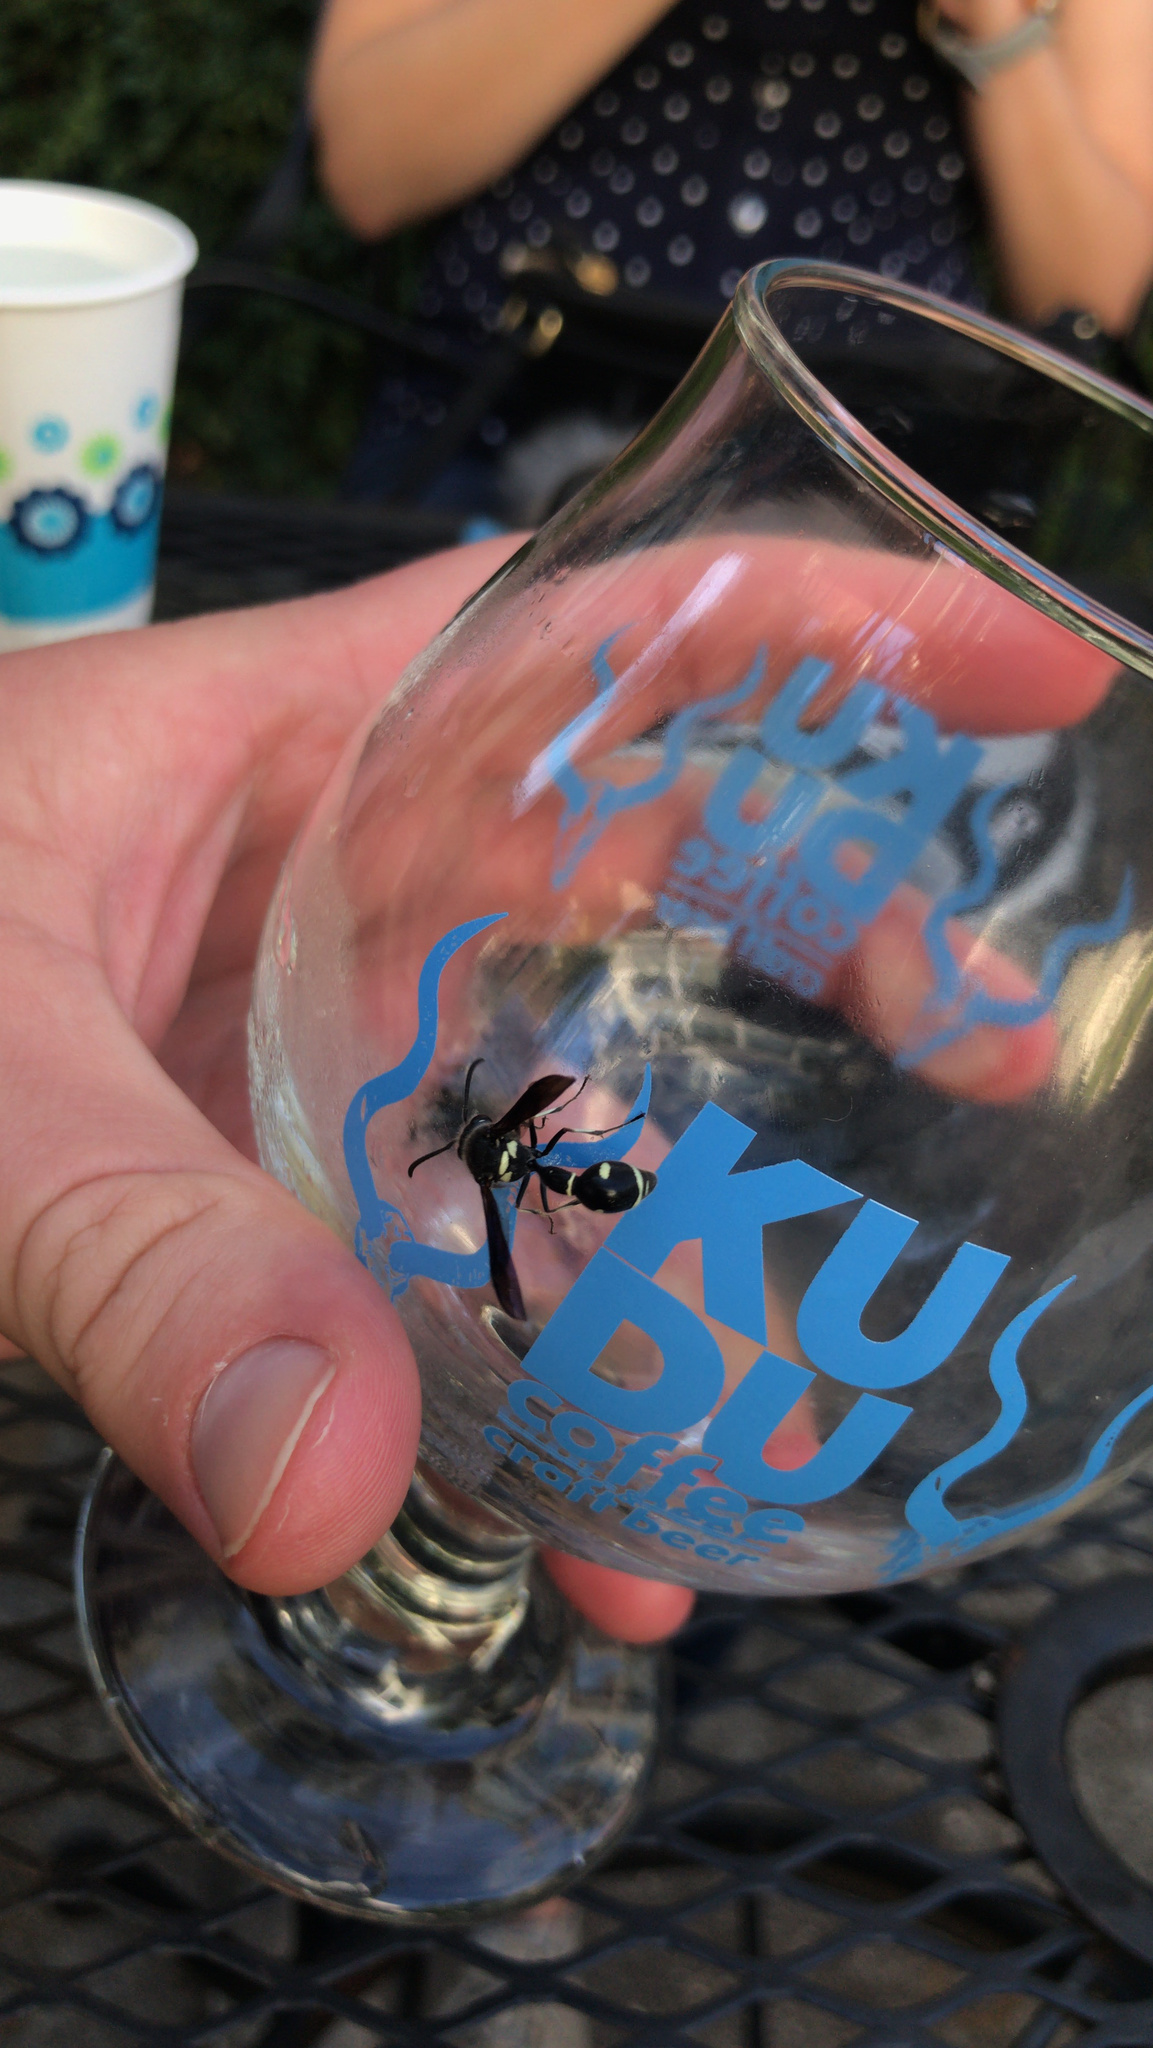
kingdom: Animalia
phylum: Arthropoda
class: Insecta
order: Hymenoptera
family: Vespidae
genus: Eumenes
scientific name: Eumenes fraternus
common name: Fraternal potter wasp
